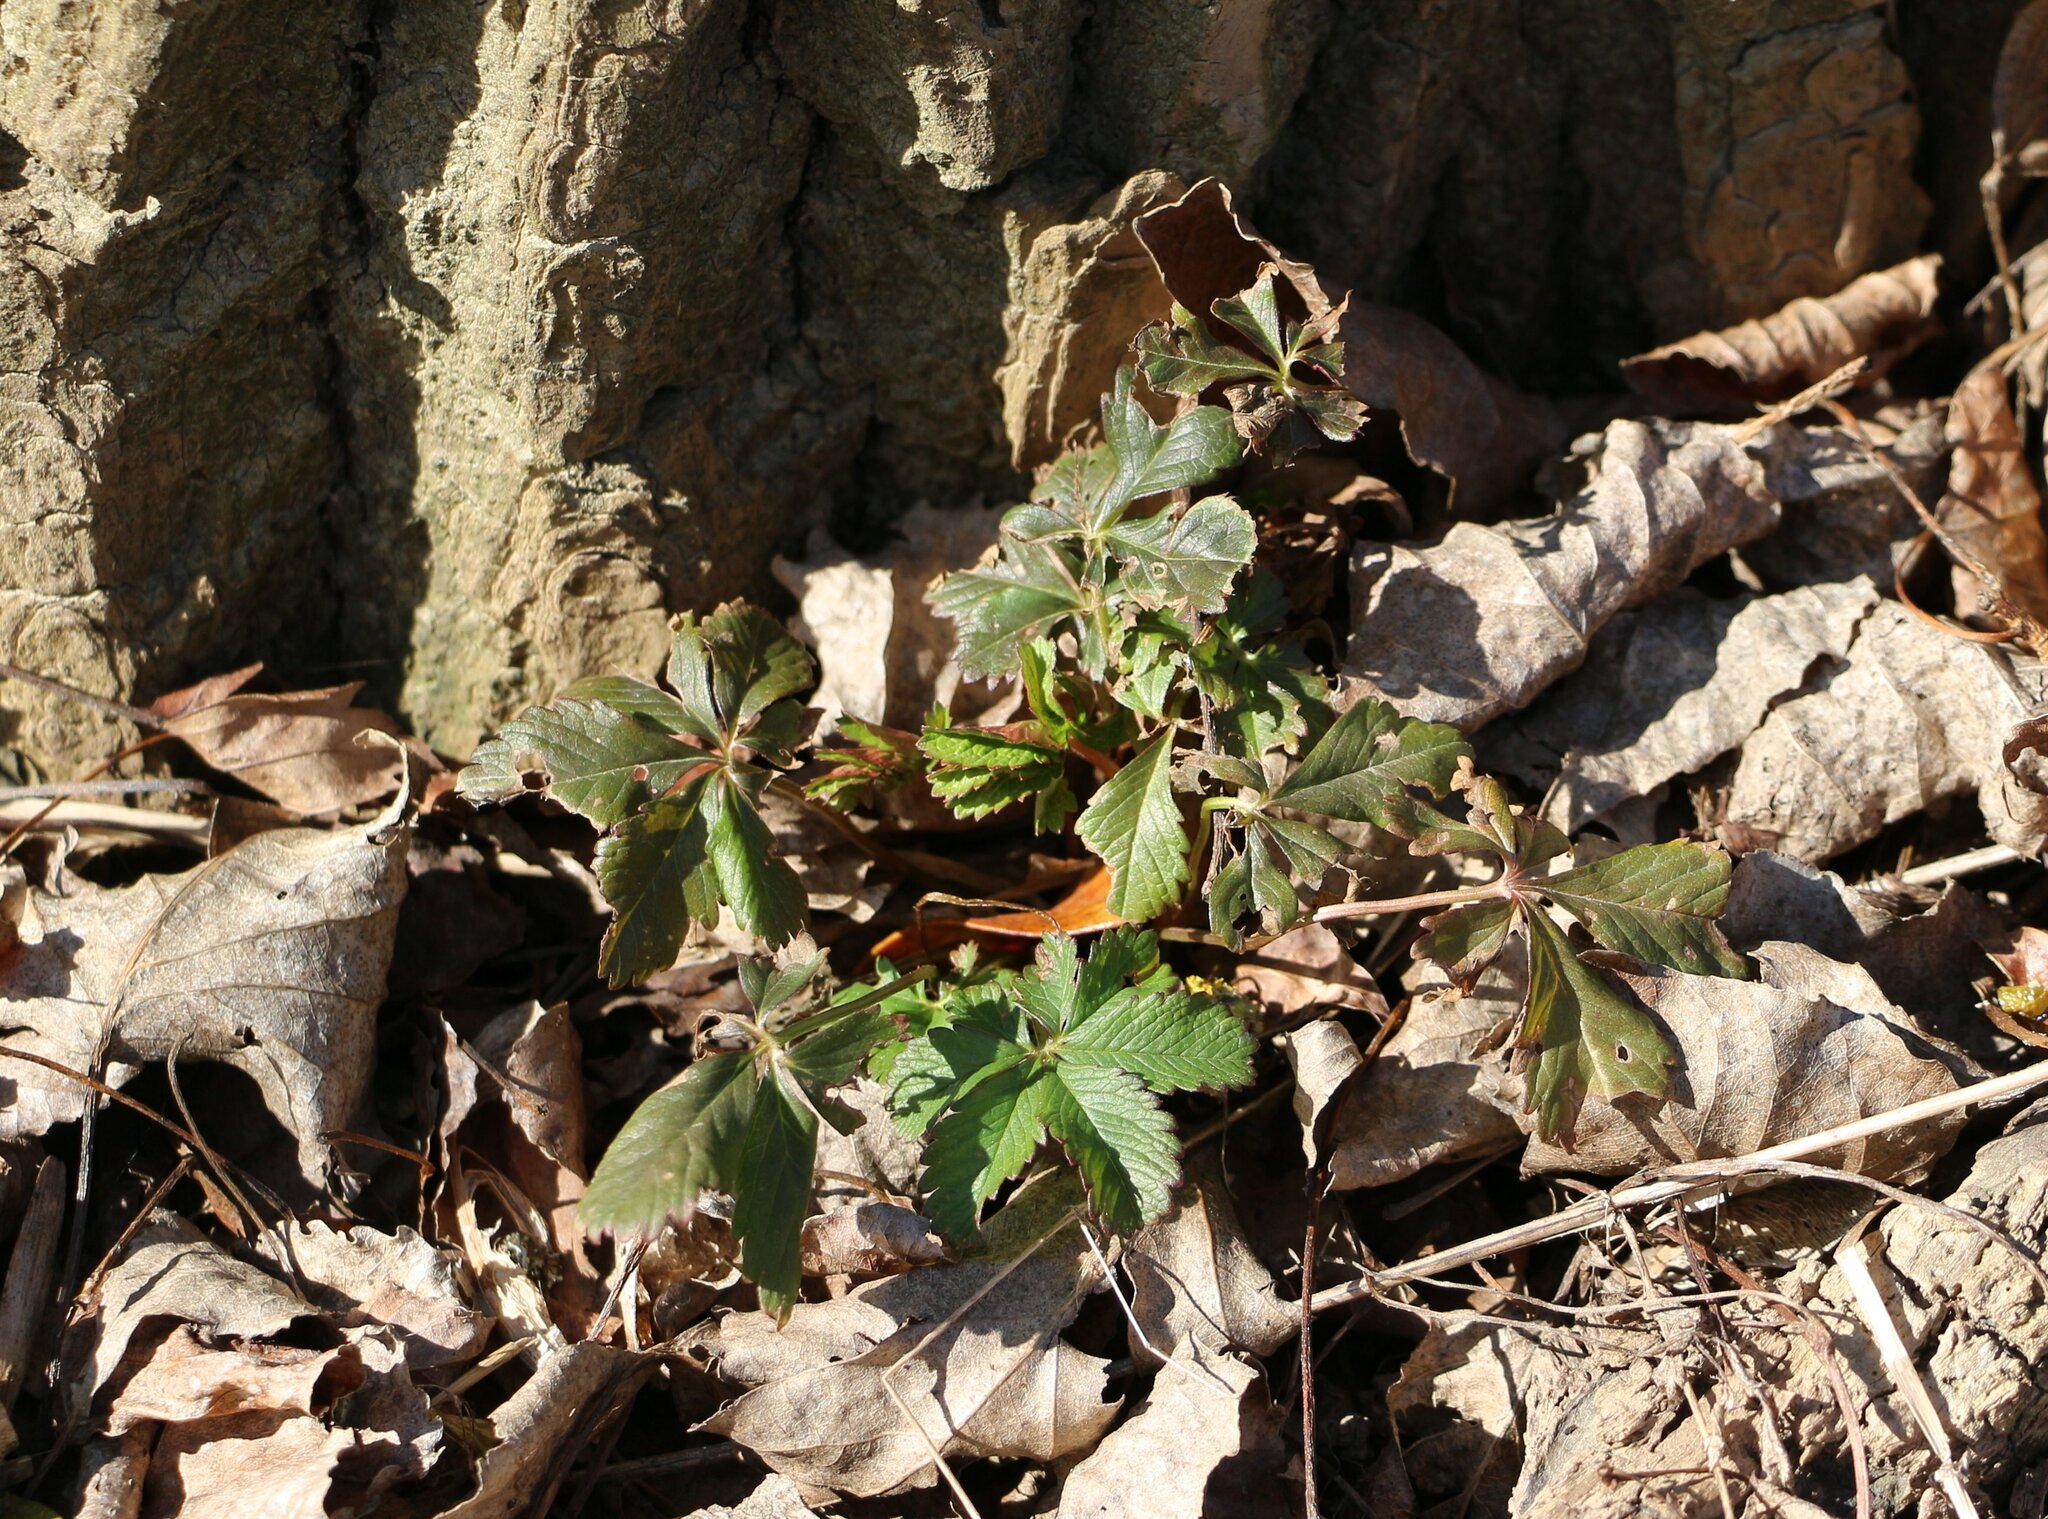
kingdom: Plantae
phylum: Tracheophyta
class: Magnoliopsida
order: Rosales
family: Rosaceae
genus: Potentilla
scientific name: Potentilla reptans
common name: Creeping cinquefoil
